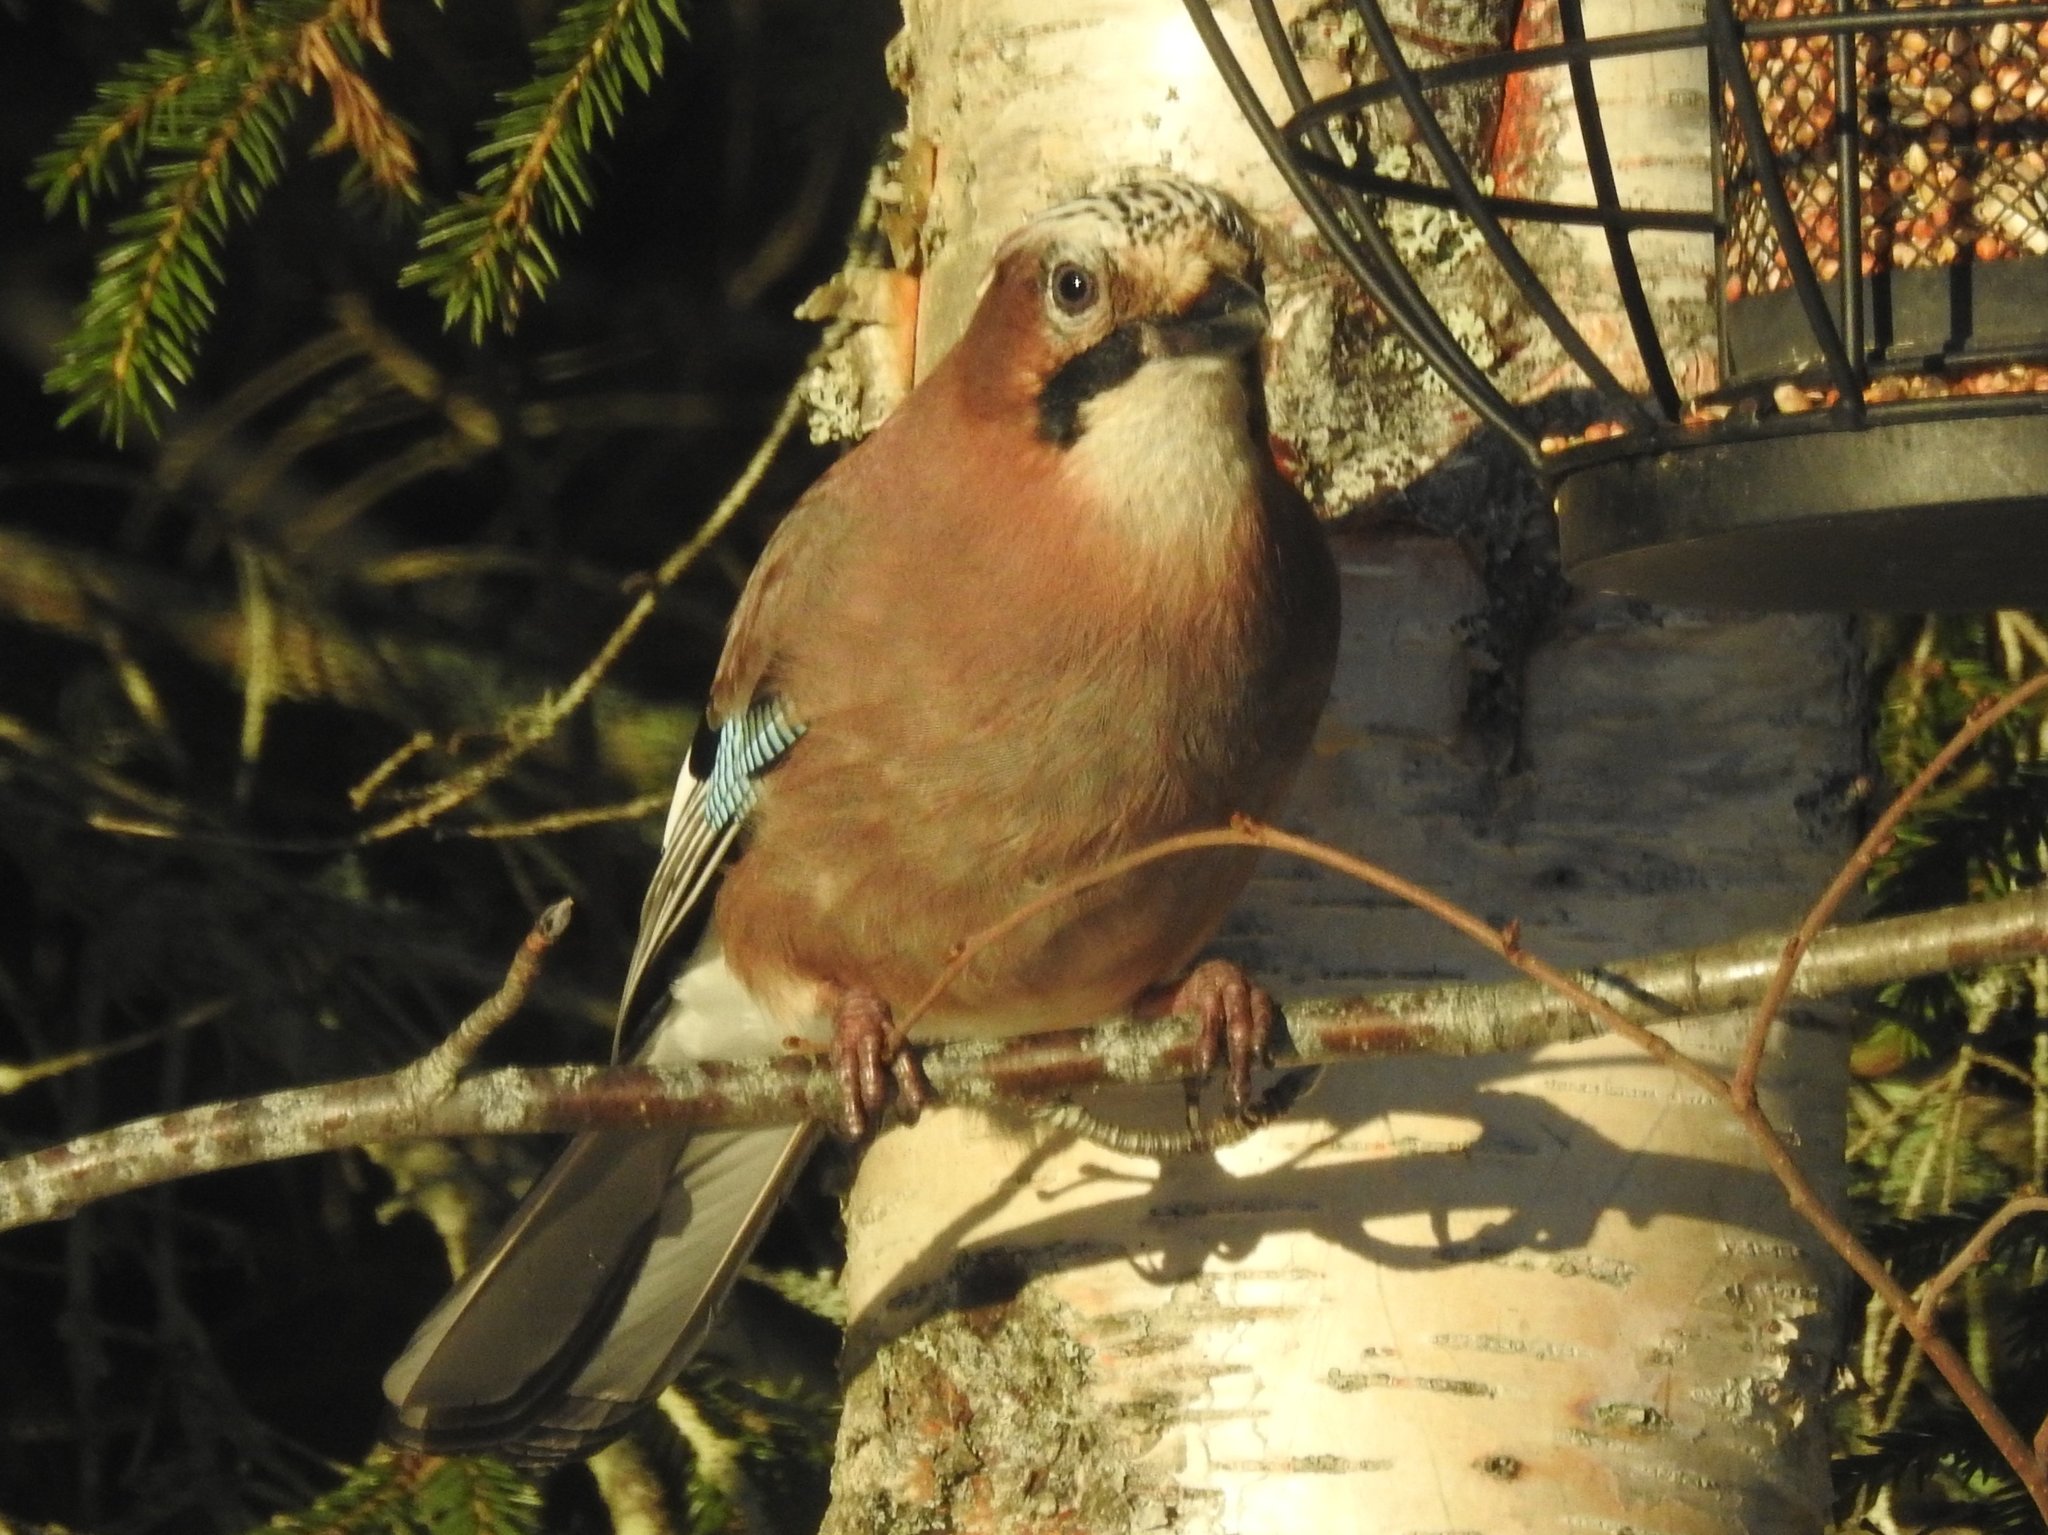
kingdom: Animalia
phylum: Chordata
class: Aves
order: Passeriformes
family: Corvidae
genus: Garrulus
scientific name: Garrulus glandarius
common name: Eurasian jay
